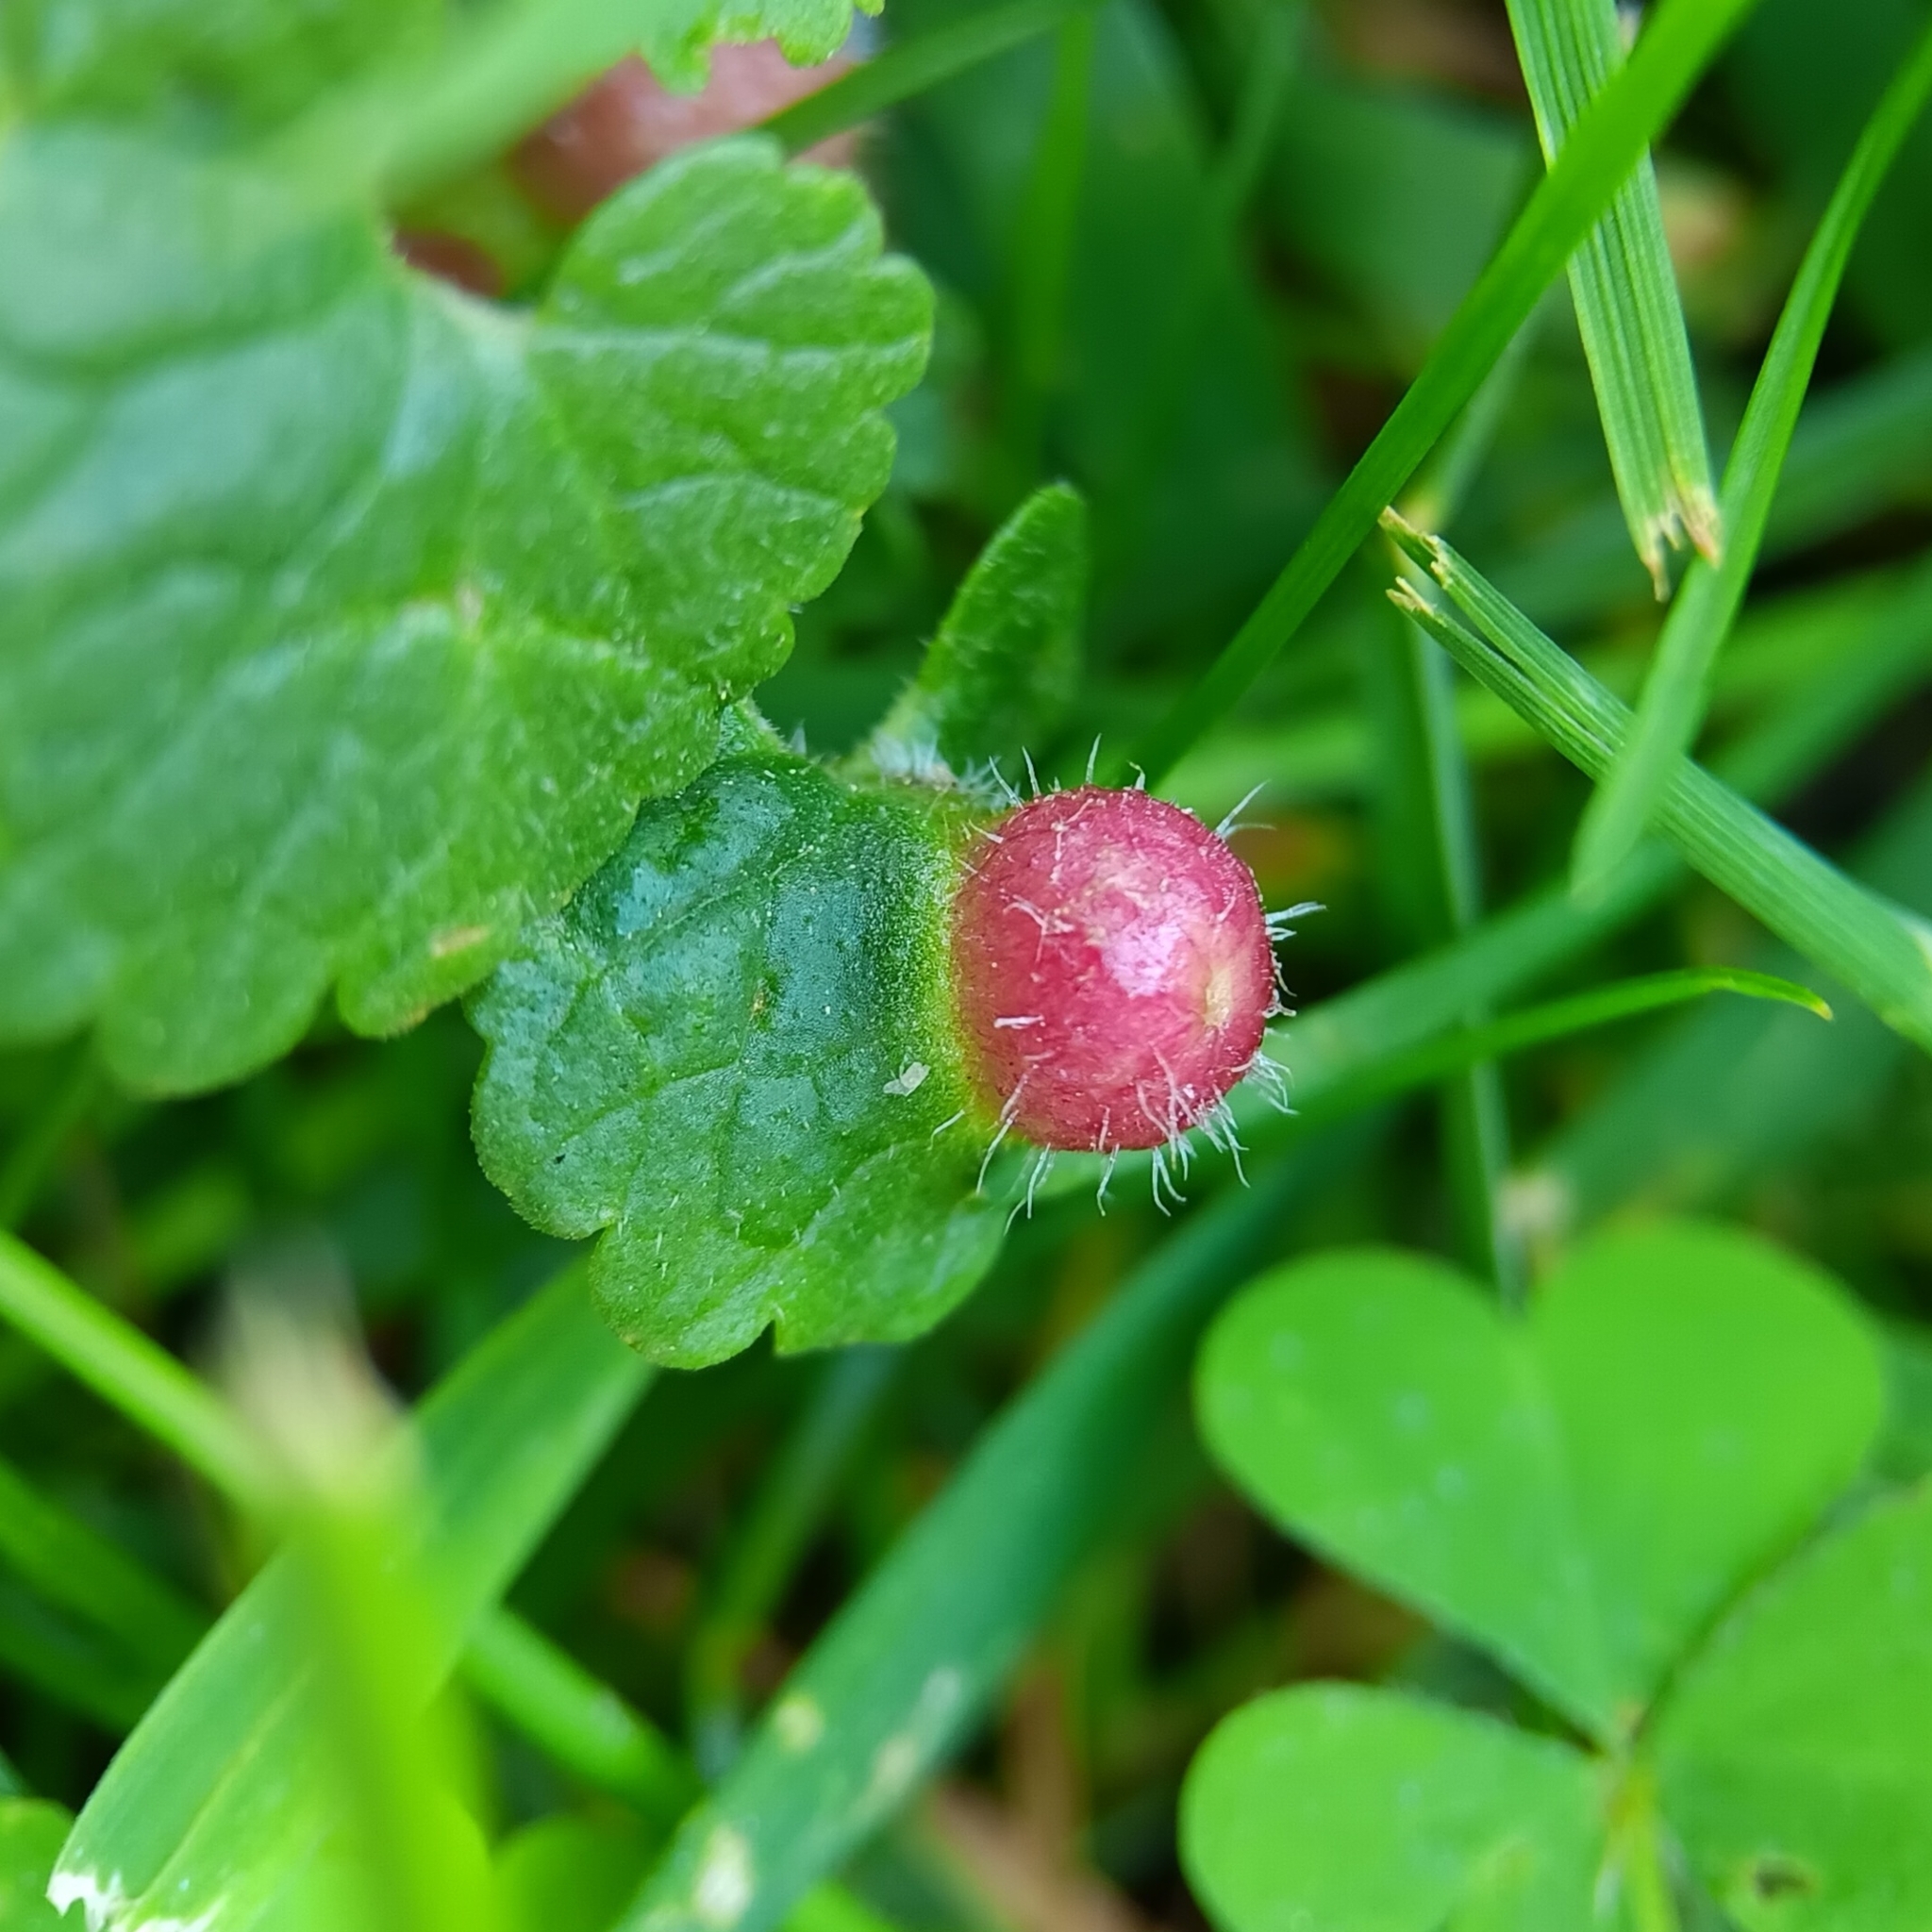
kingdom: Animalia
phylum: Arthropoda
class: Insecta
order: Hymenoptera
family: Cynipidae
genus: Liposthenes
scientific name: Liposthenes glechomae
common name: Gall wasp
